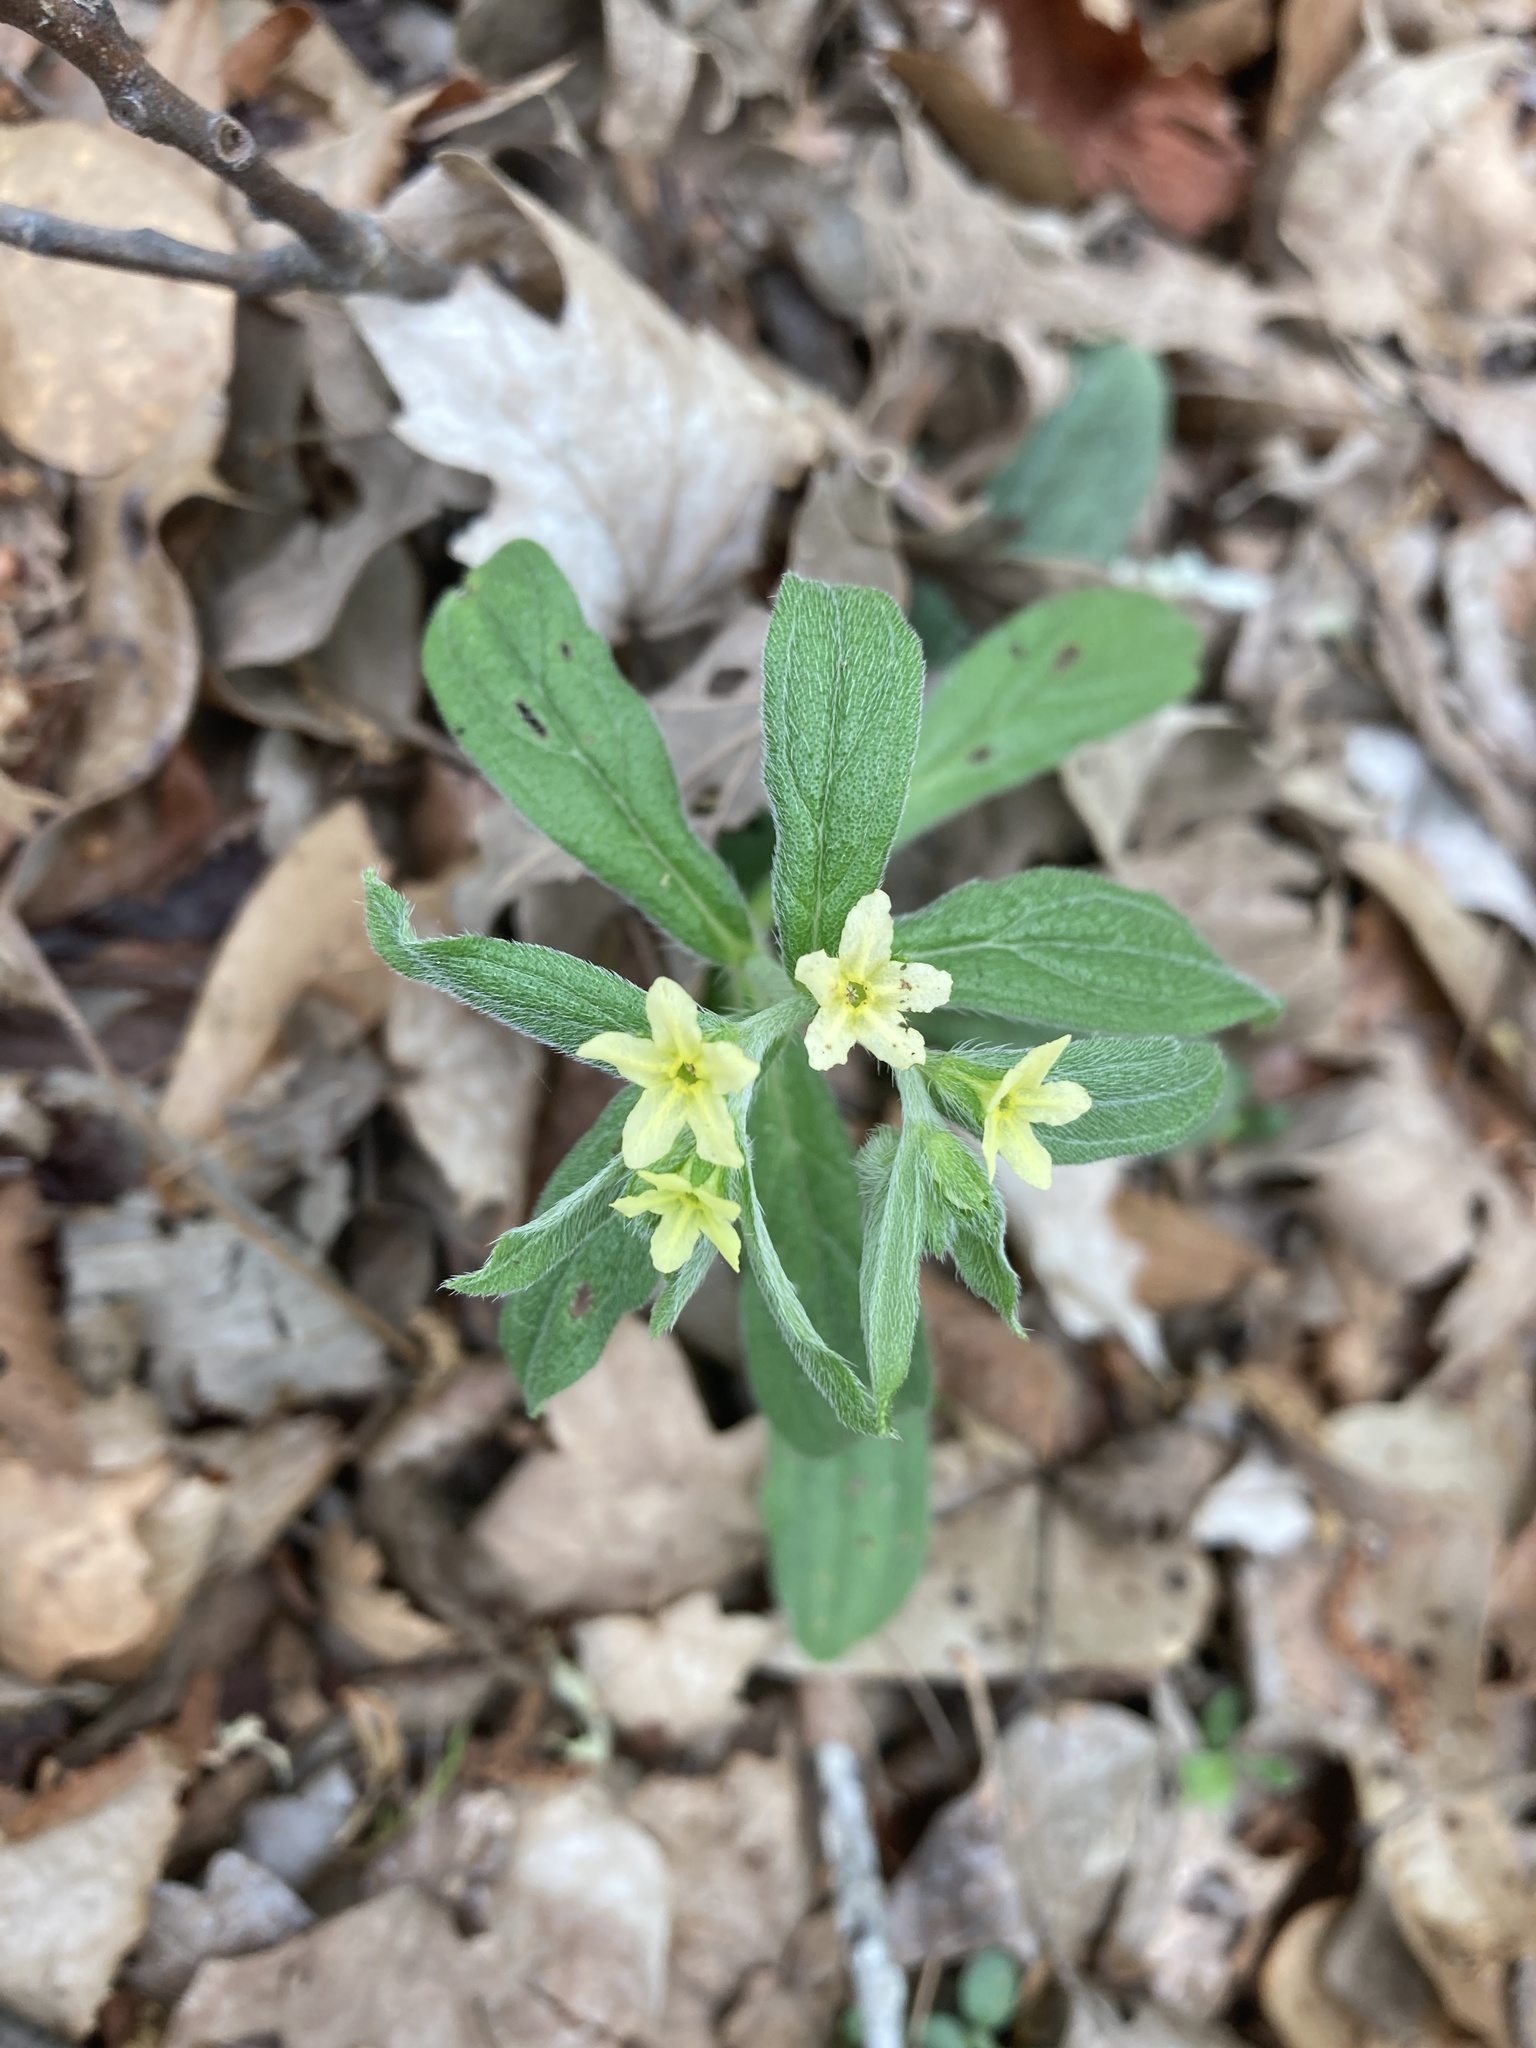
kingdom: Plantae
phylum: Tracheophyta
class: Magnoliopsida
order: Boraginales
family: Boraginaceae
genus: Lithospermum
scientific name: Lithospermum tuberosum
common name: Southern stoneseed
